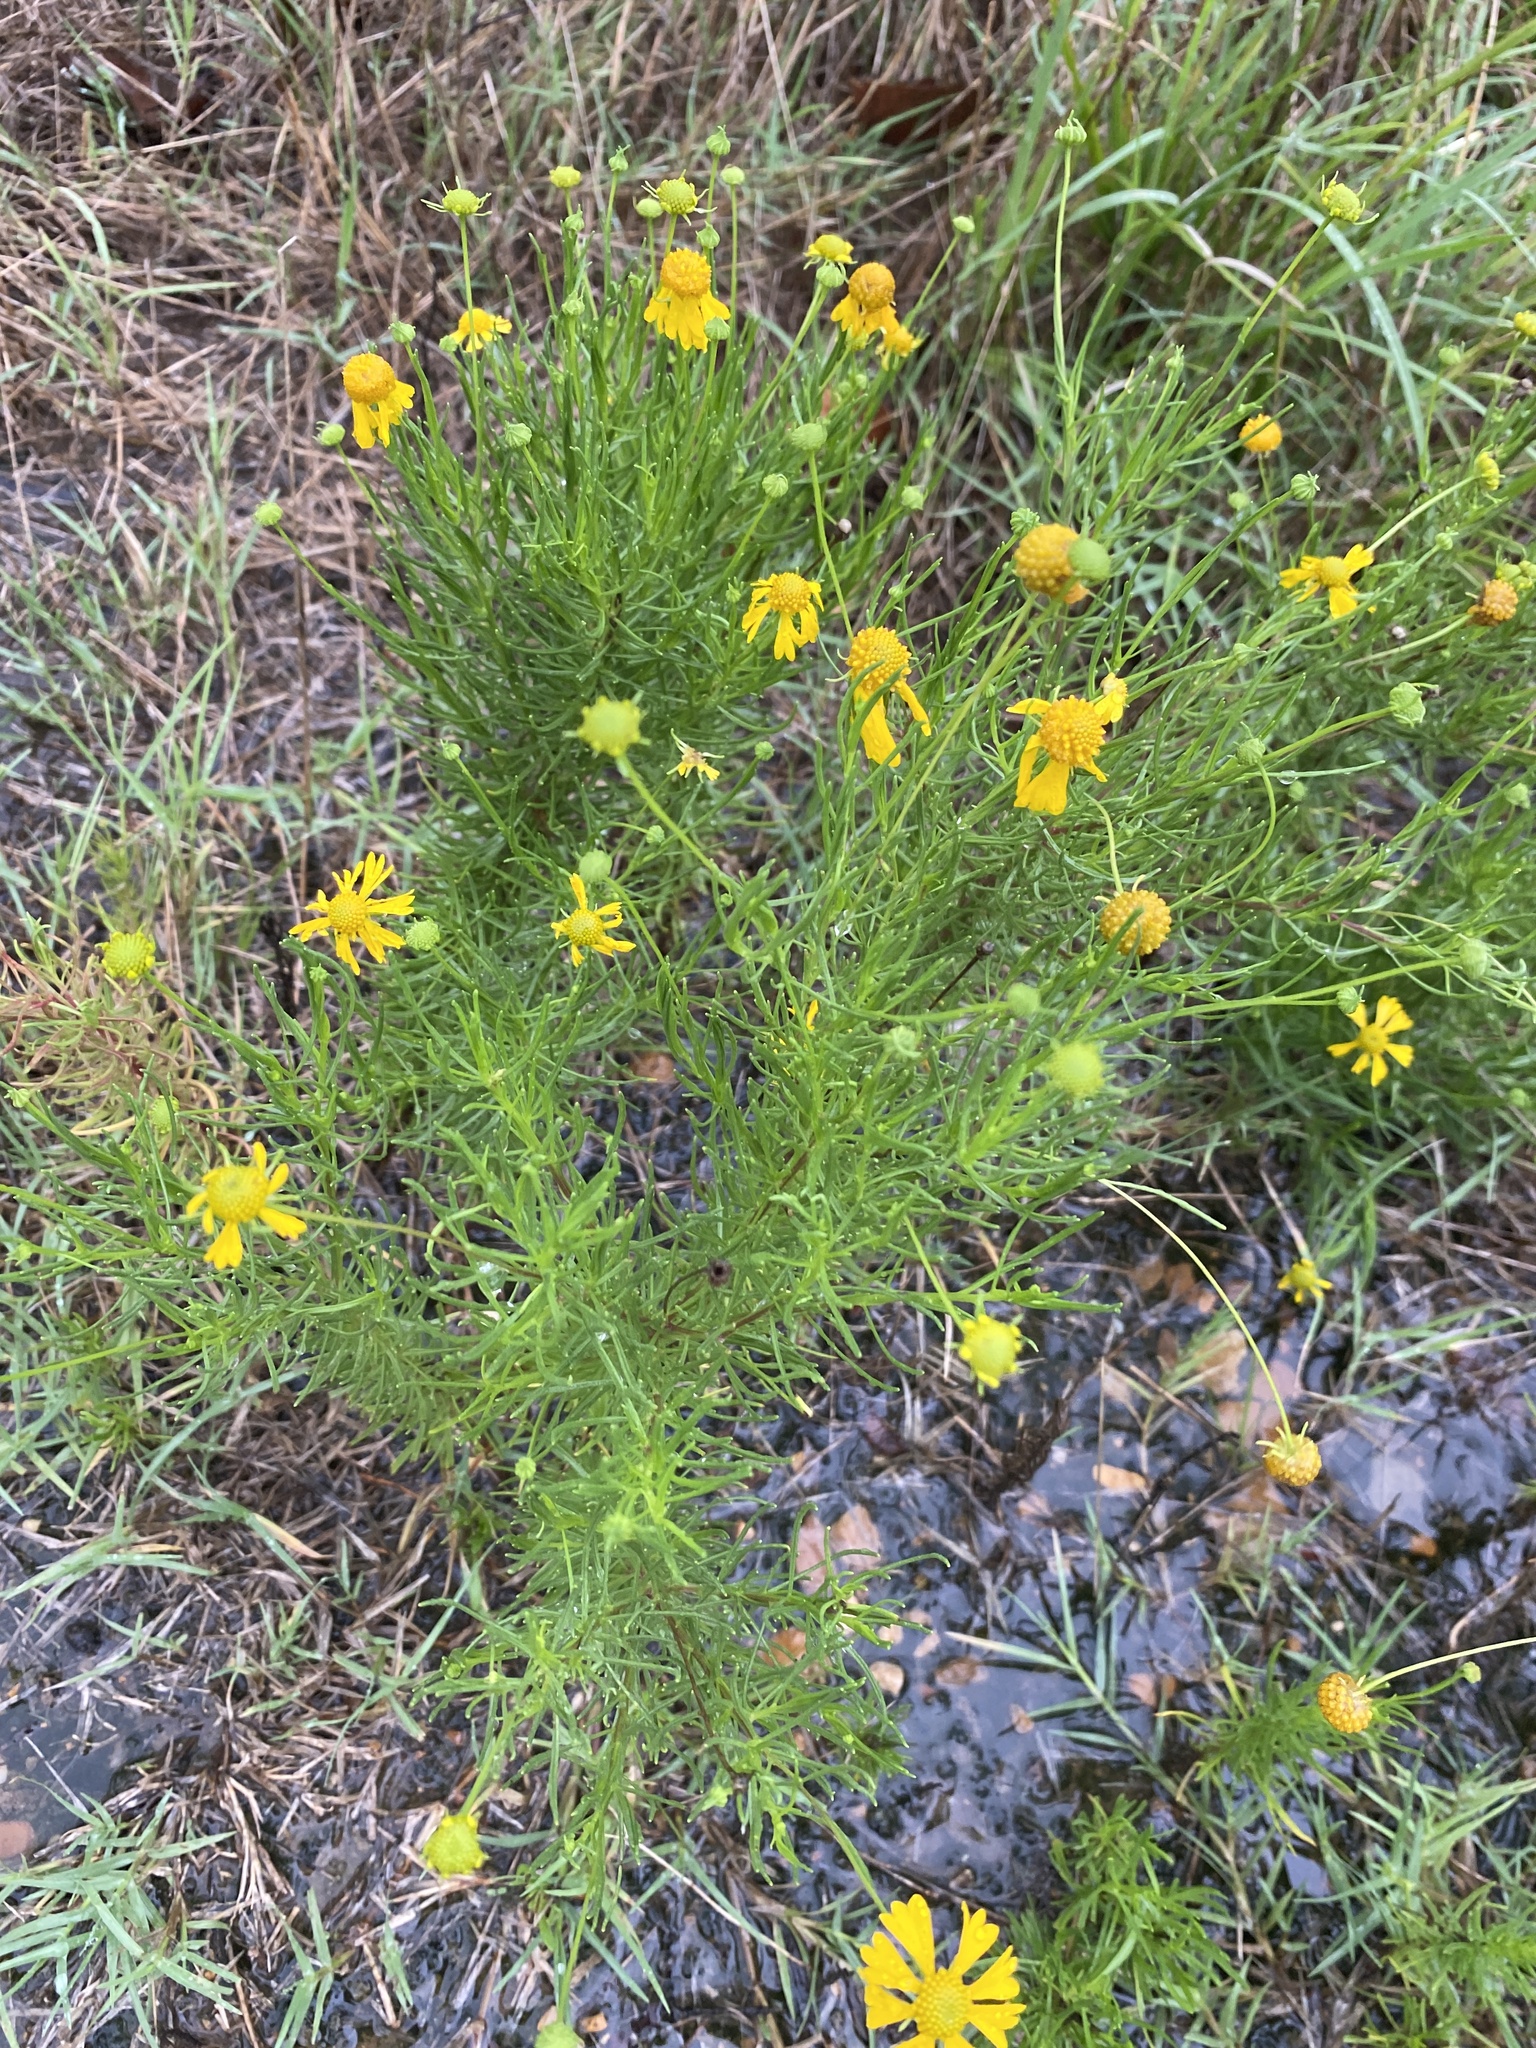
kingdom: Plantae
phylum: Tracheophyta
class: Magnoliopsida
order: Asterales
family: Asteraceae
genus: Helenium
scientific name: Helenium amarum
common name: Bitter sneezeweed
